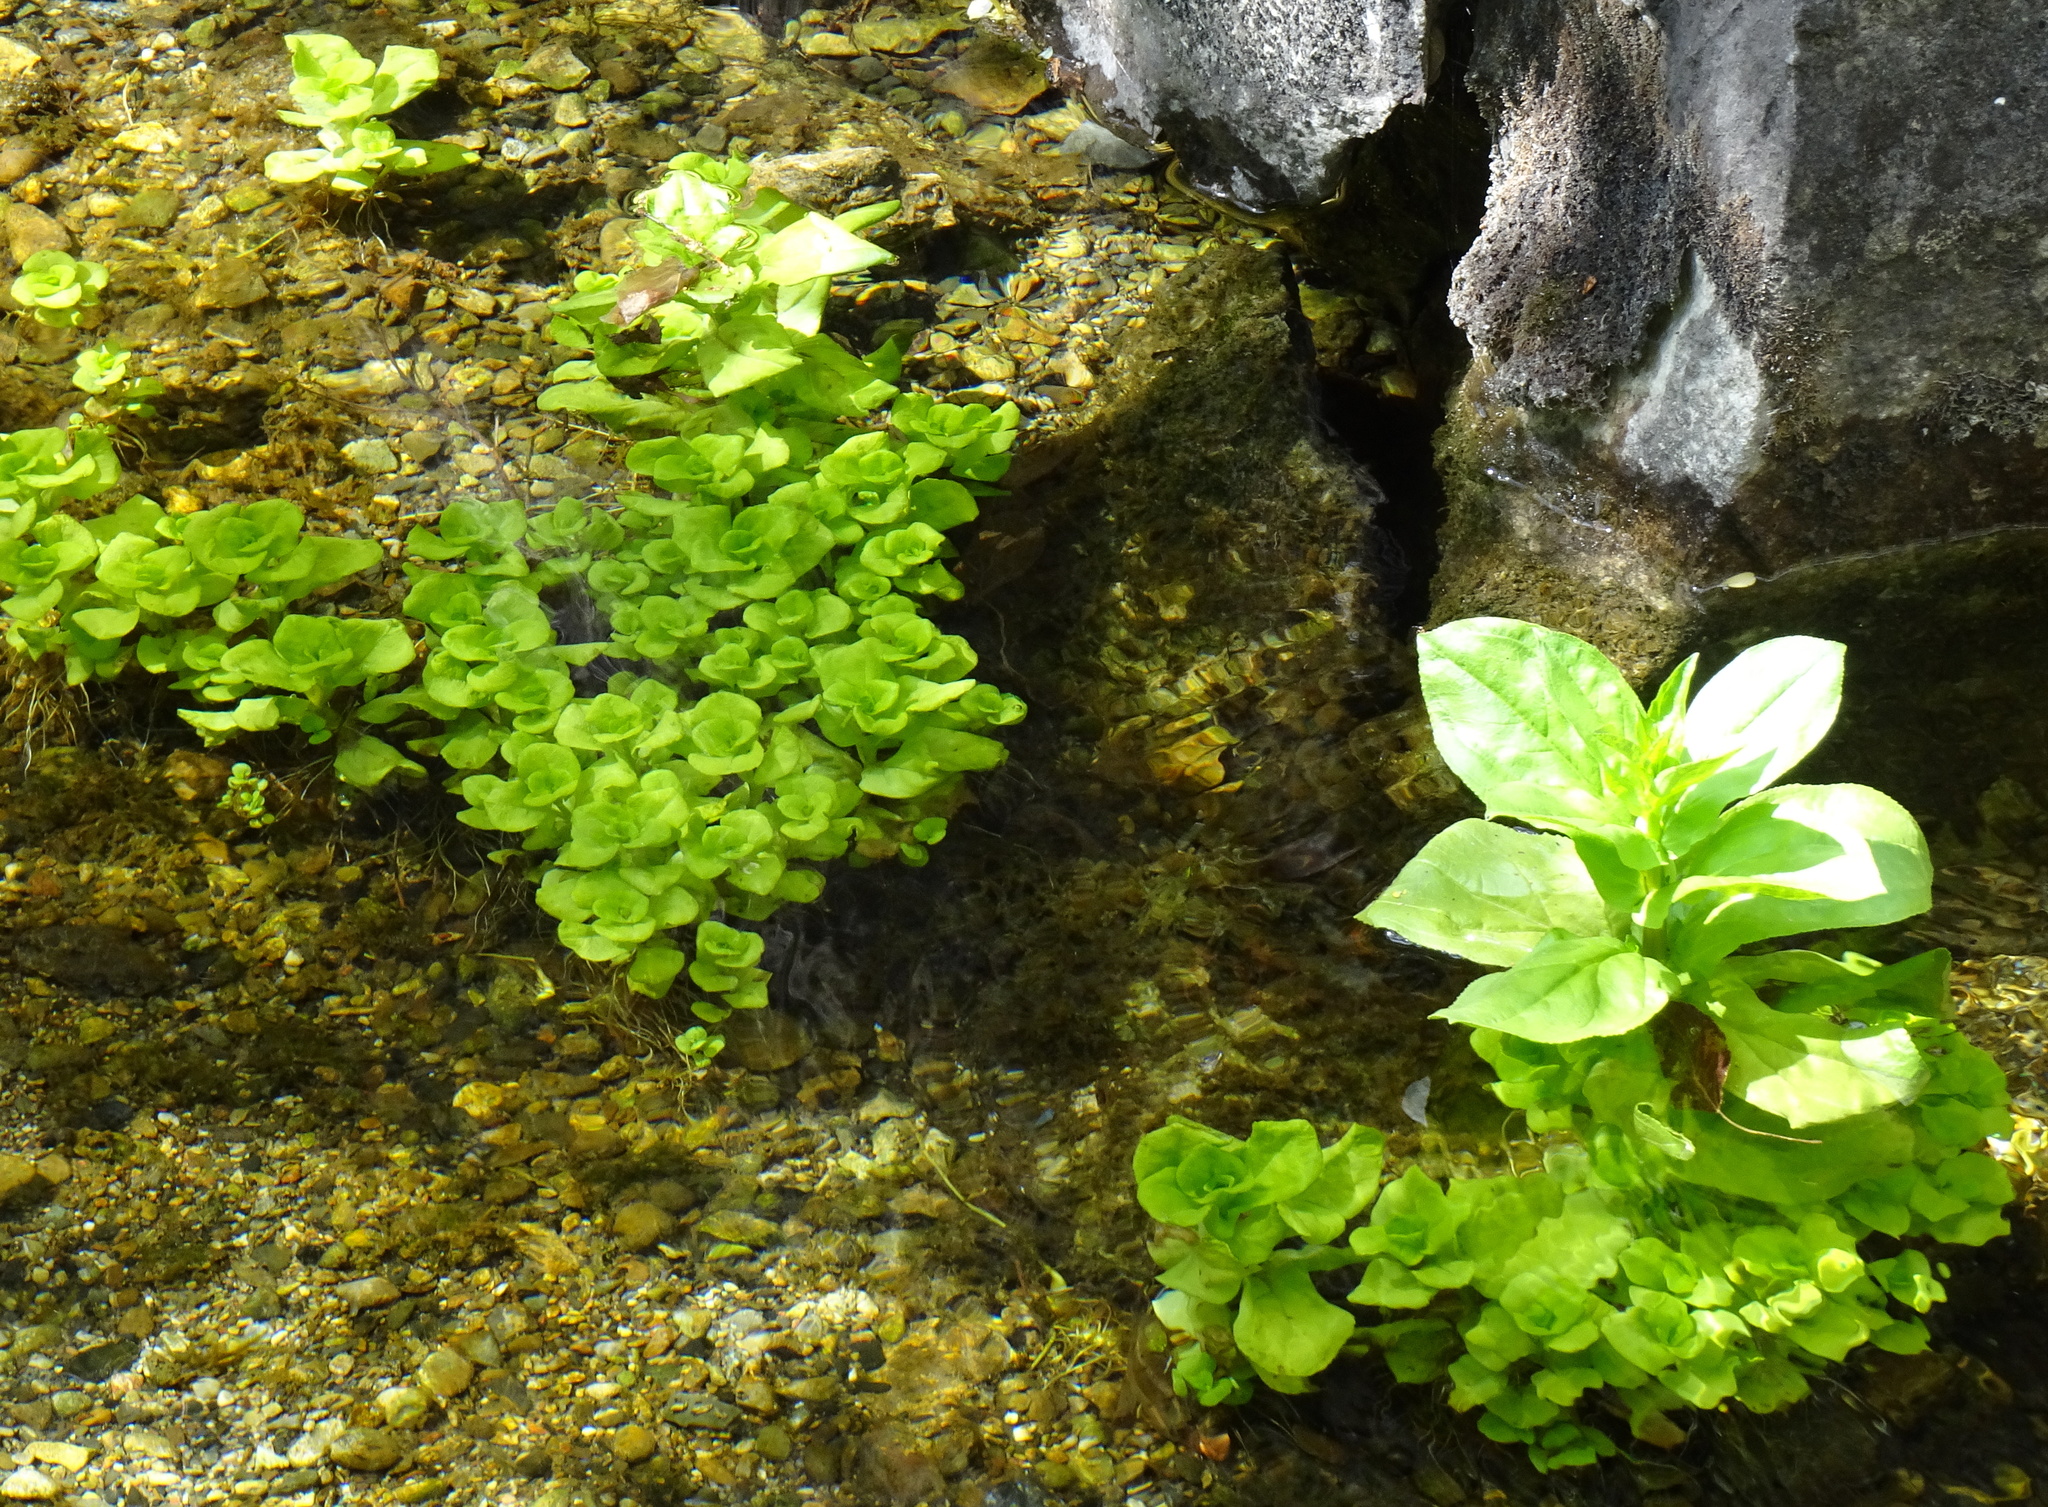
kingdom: Plantae
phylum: Tracheophyta
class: Magnoliopsida
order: Lamiales
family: Plantaginaceae
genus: Veronica
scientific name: Veronica beccabunga
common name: Brooklime
